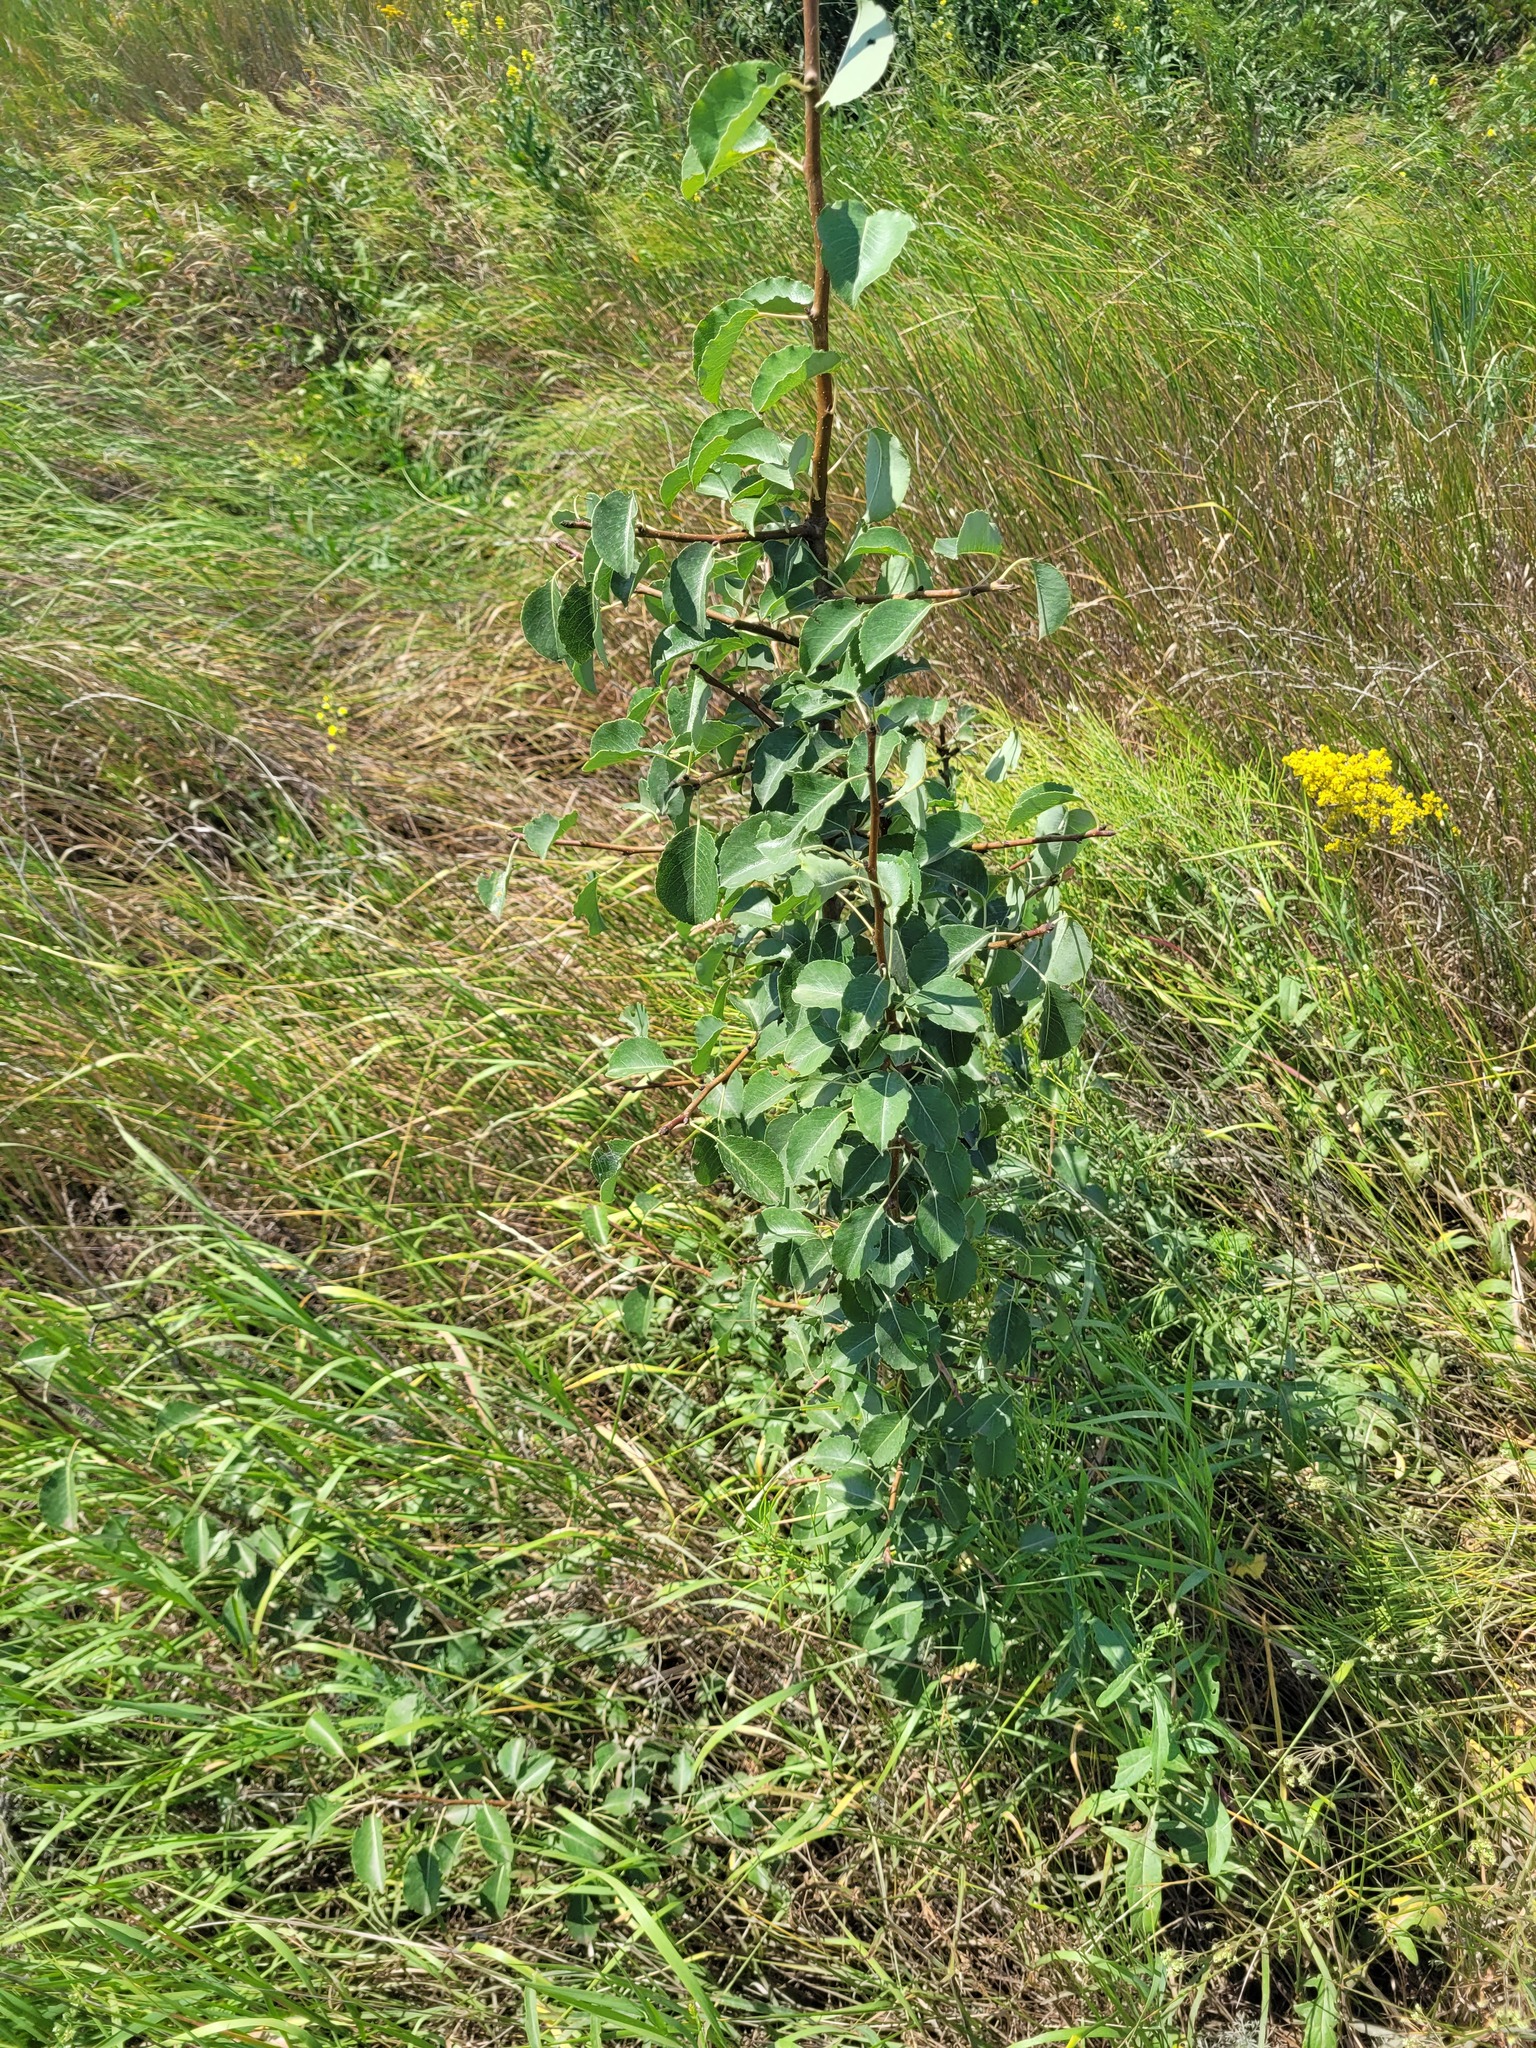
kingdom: Plantae
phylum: Tracheophyta
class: Magnoliopsida
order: Rosales
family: Rosaceae
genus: Pyrus
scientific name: Pyrus communis
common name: Pear
